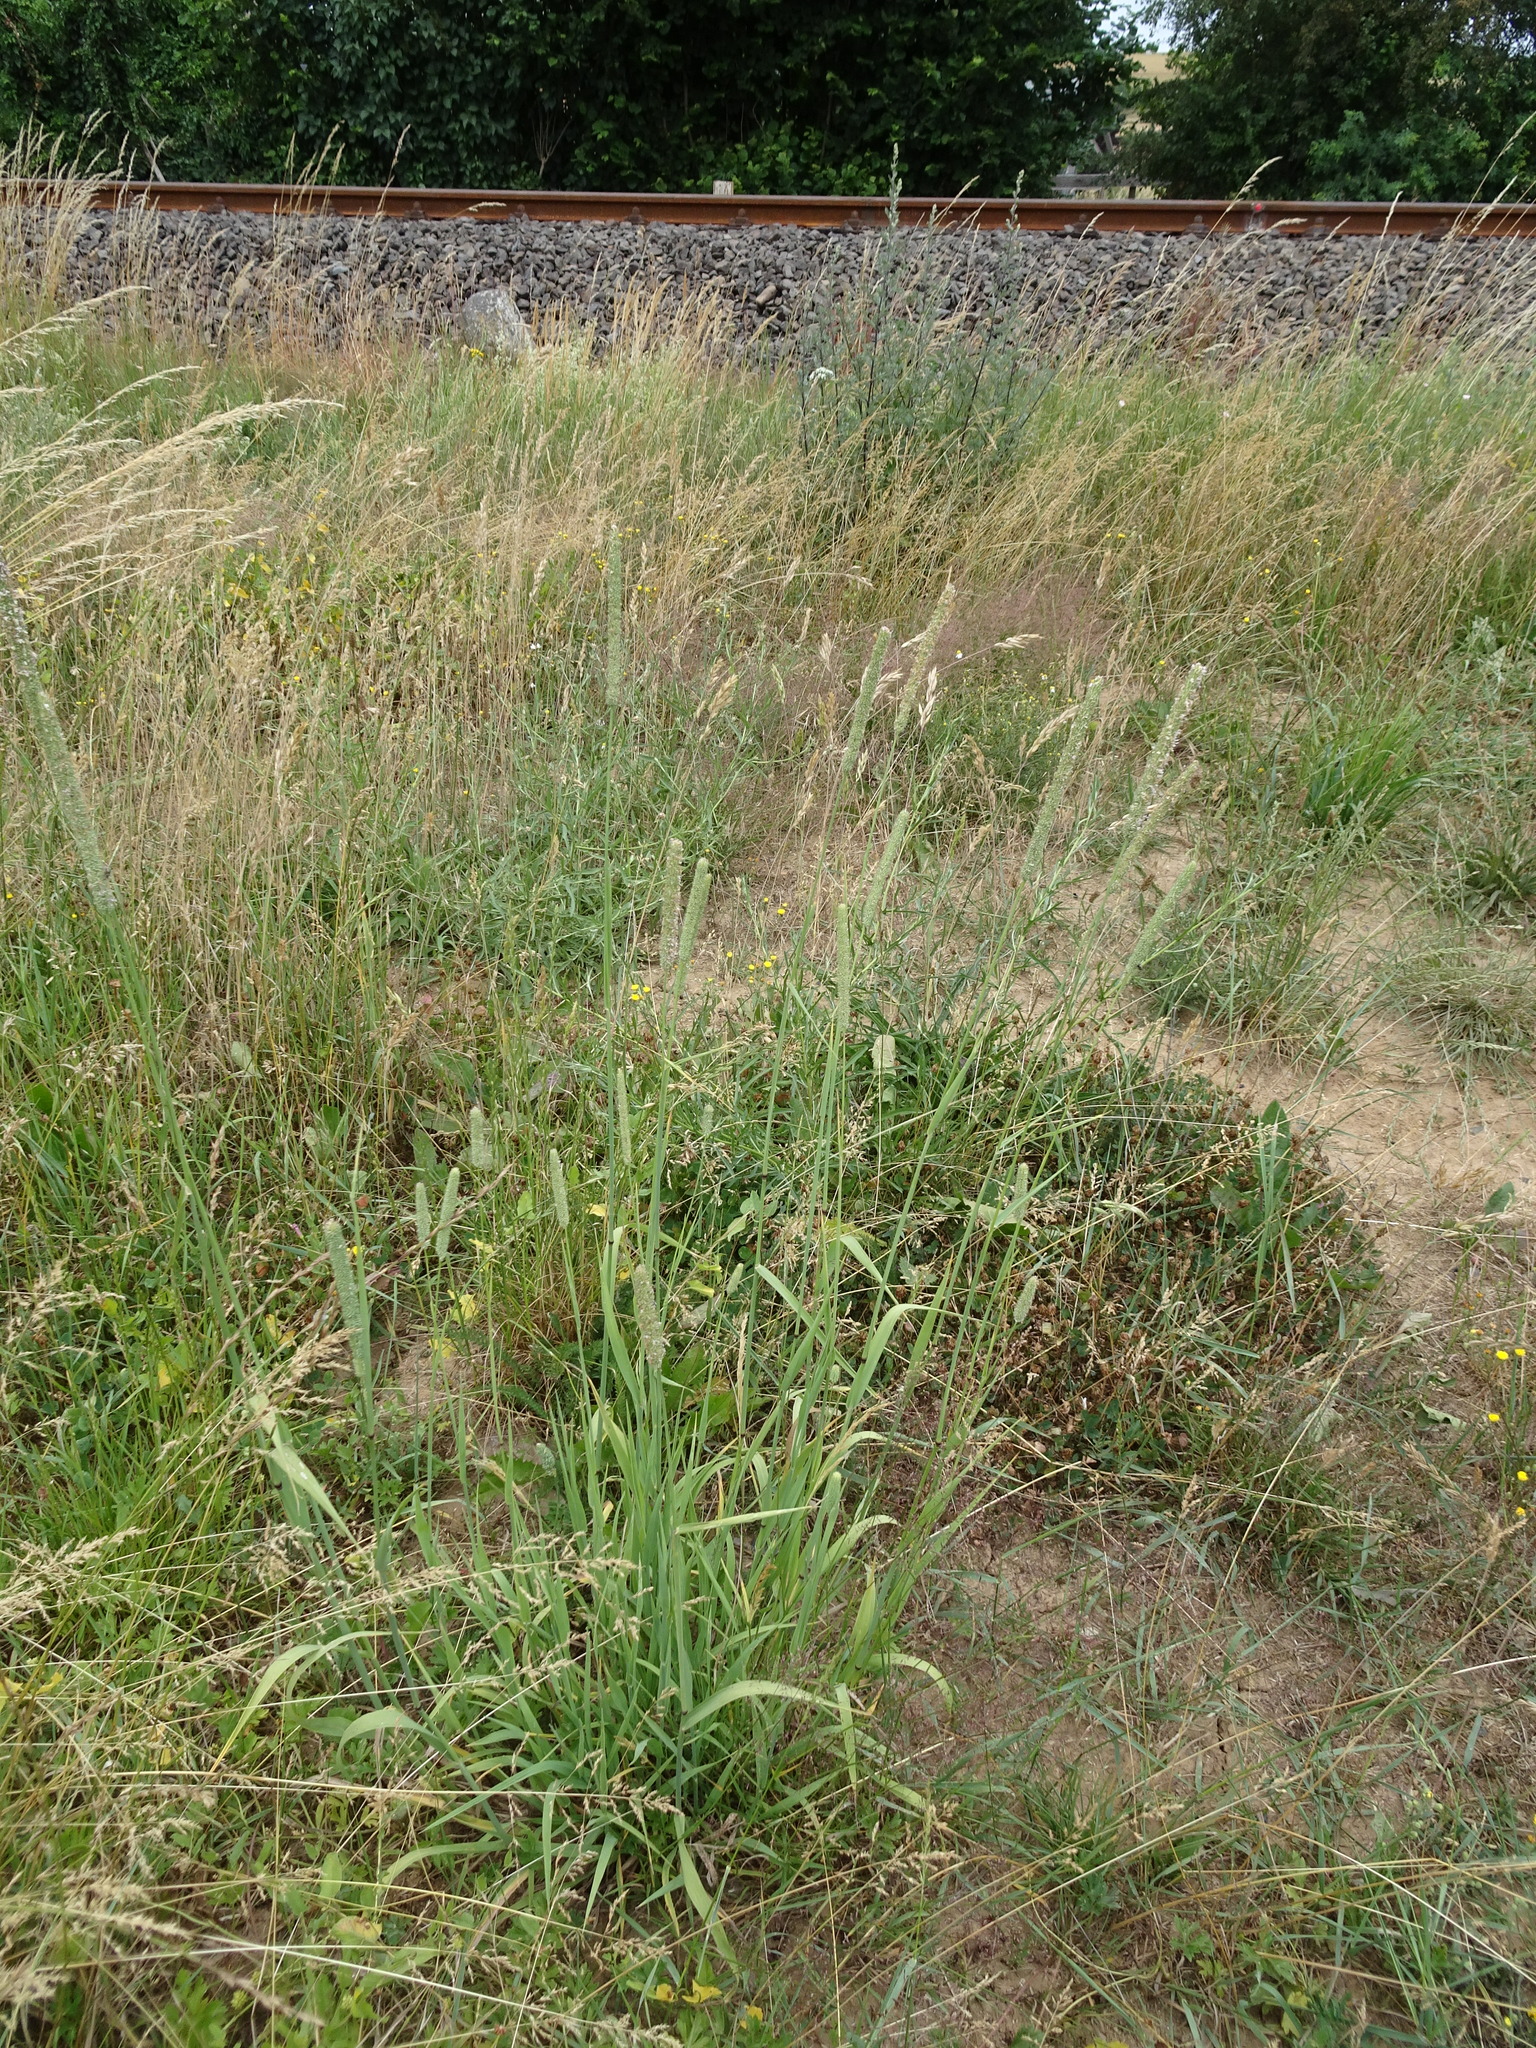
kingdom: Plantae
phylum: Tracheophyta
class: Liliopsida
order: Poales
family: Poaceae
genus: Phleum
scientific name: Phleum pratense
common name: Timothy grass
